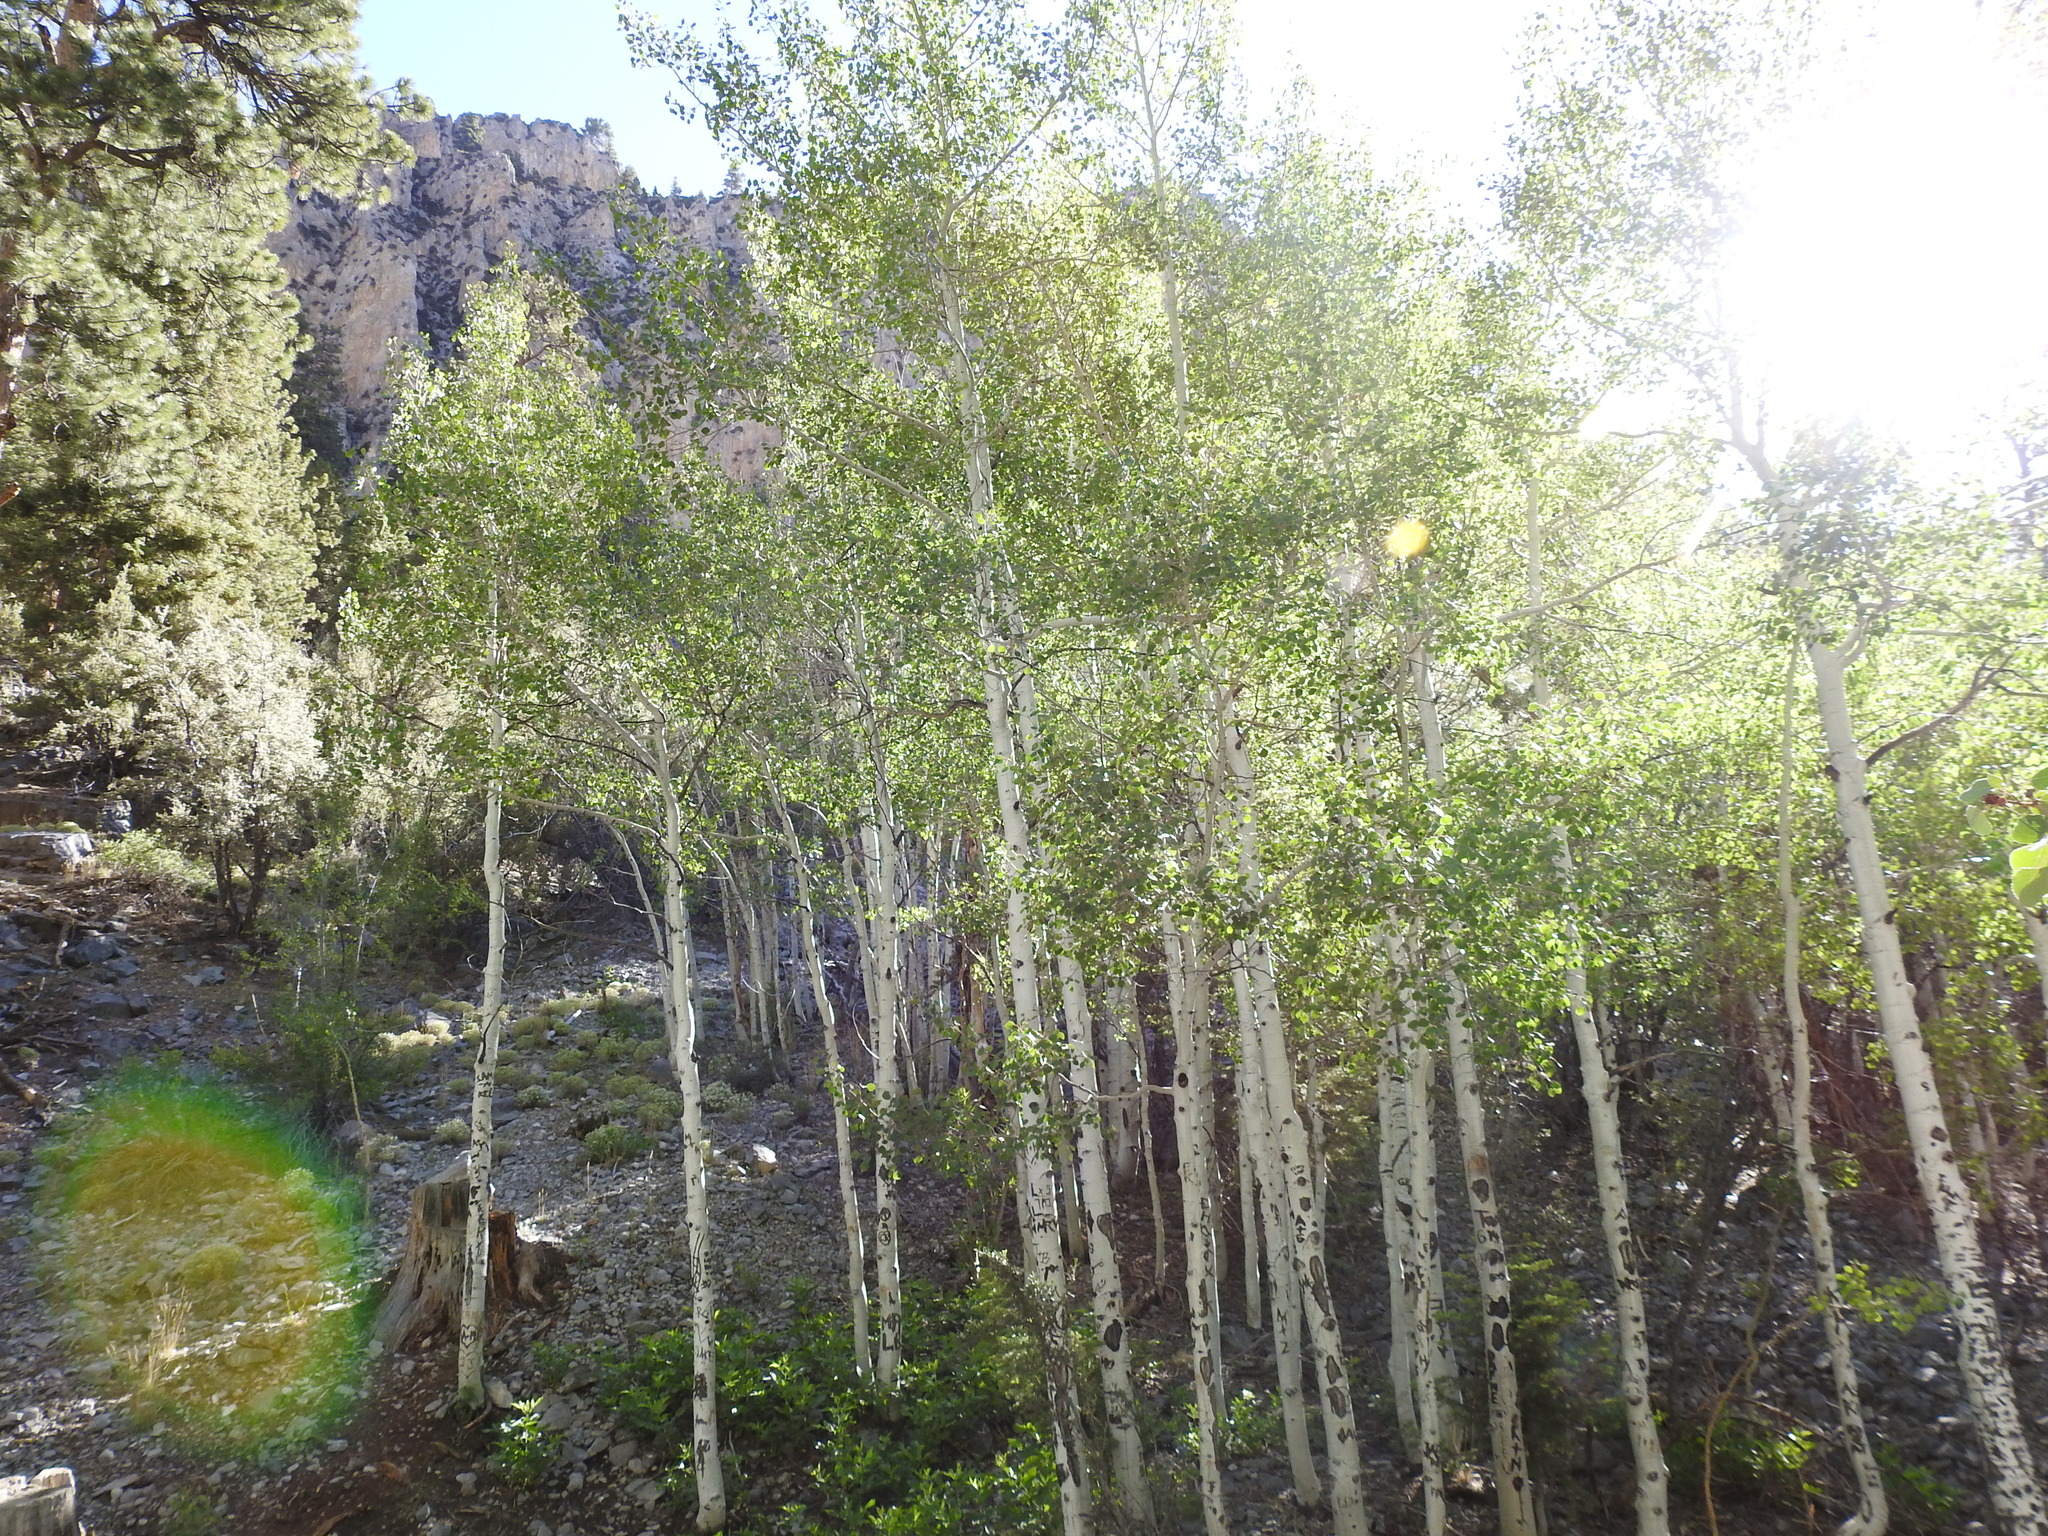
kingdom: Plantae
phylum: Tracheophyta
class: Magnoliopsida
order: Malpighiales
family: Salicaceae
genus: Populus
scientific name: Populus tremuloides
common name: Quaking aspen
